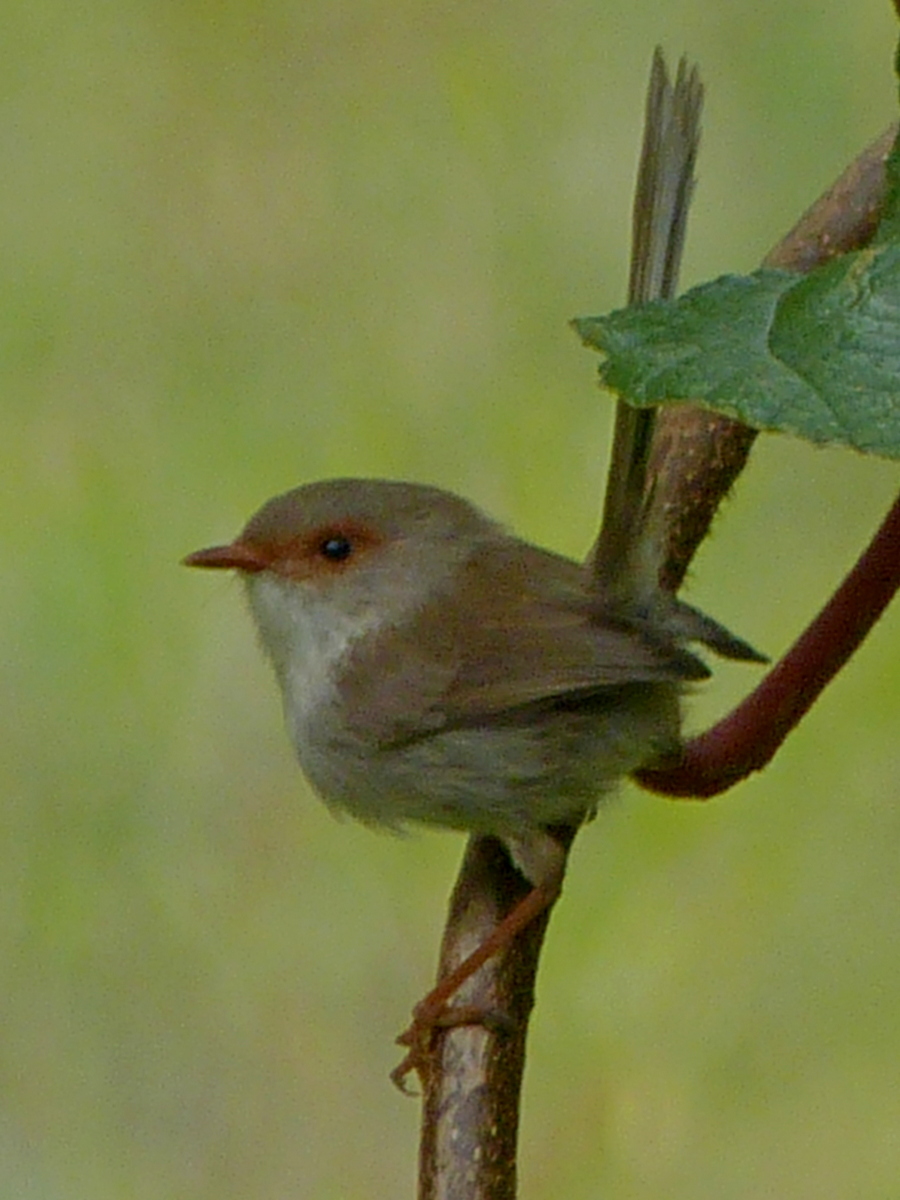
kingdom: Animalia
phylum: Chordata
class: Aves
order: Passeriformes
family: Maluridae
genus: Malurus
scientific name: Malurus cyaneus
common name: Superb fairywren
